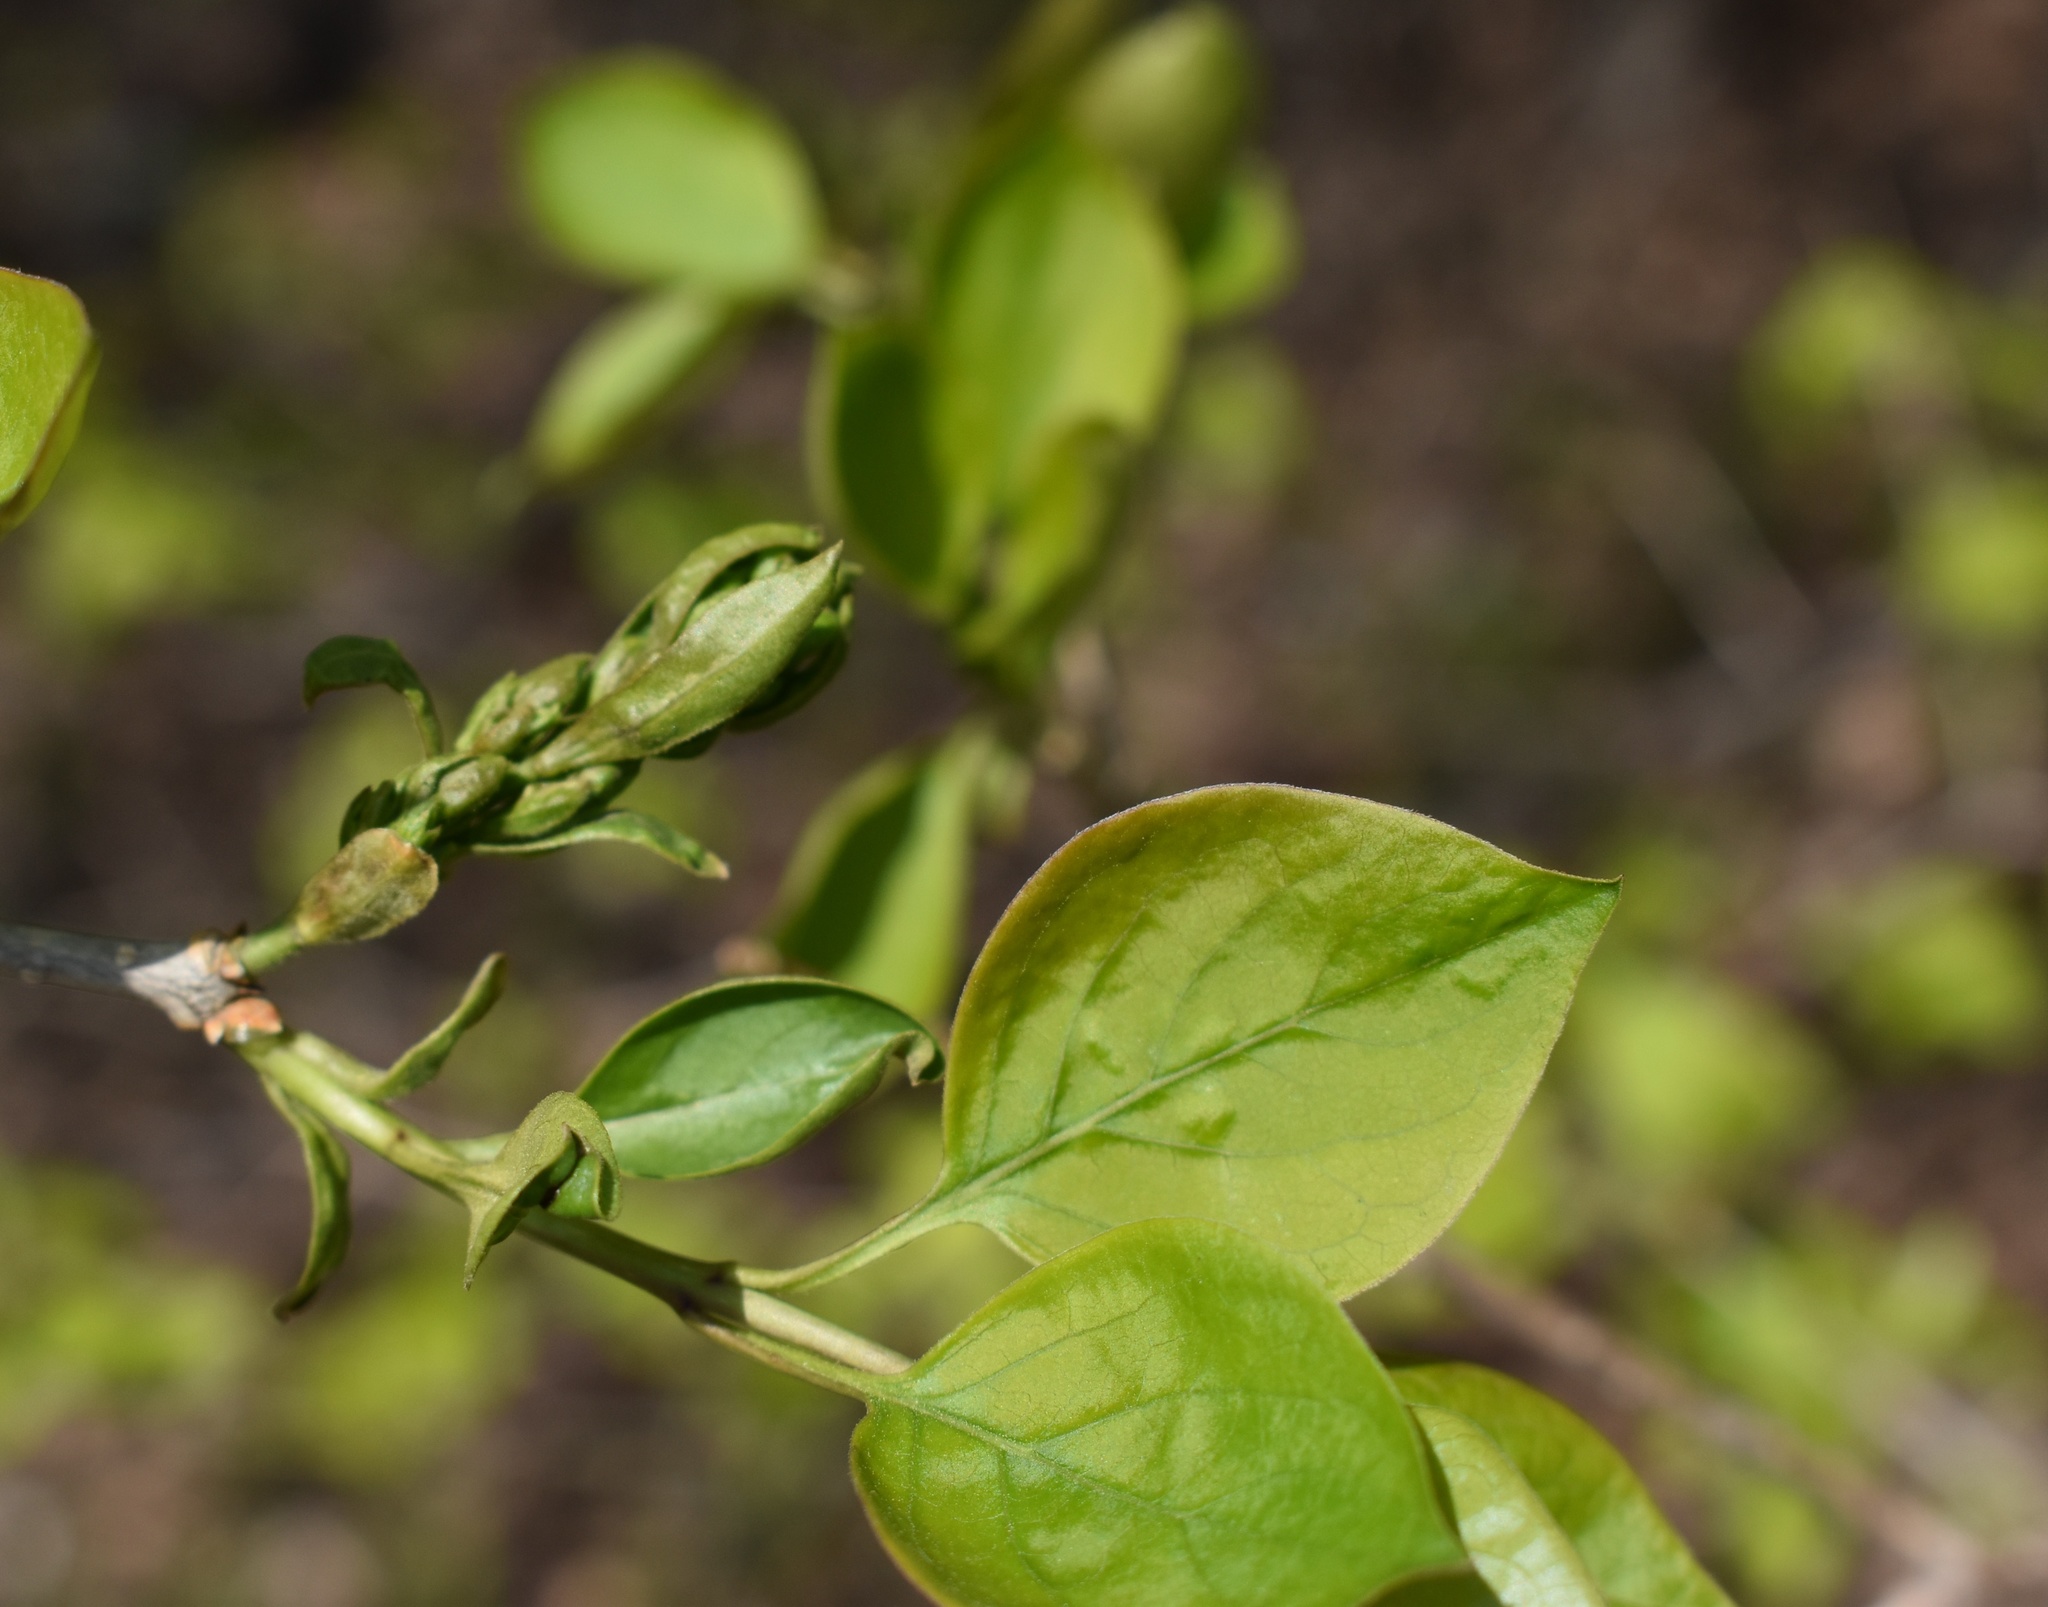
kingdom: Plantae
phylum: Tracheophyta
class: Magnoliopsida
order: Lamiales
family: Oleaceae
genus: Syringa
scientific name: Syringa reticulata
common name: Japanese tree lilac
